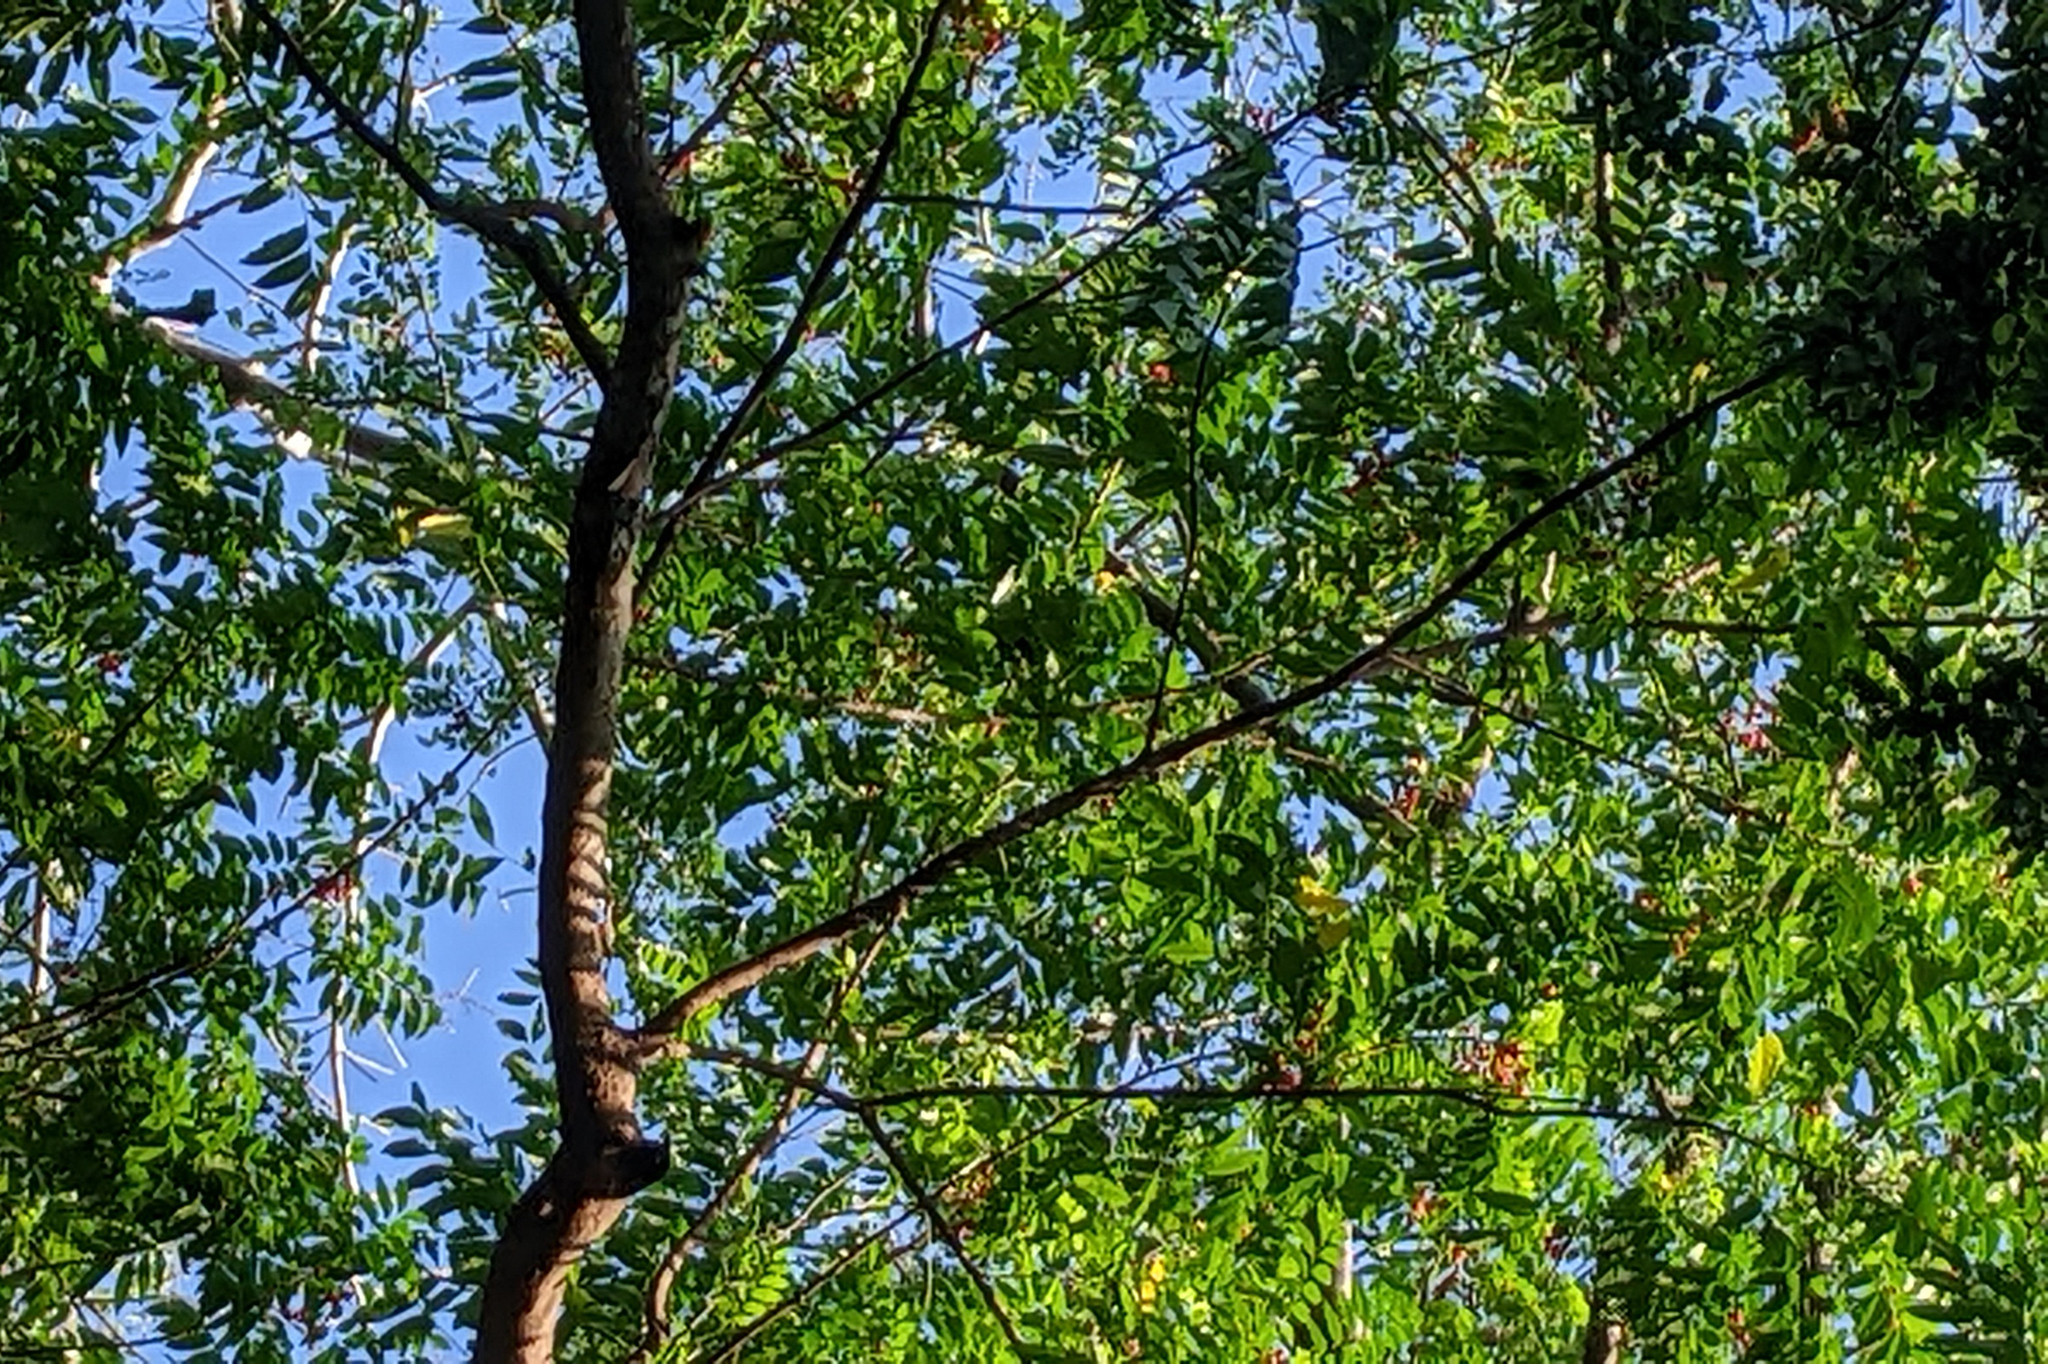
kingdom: Plantae
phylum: Tracheophyta
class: Magnoliopsida
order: Sapindales
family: Sapindaceae
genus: Ganophyllum
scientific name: Ganophyllum falcatum
